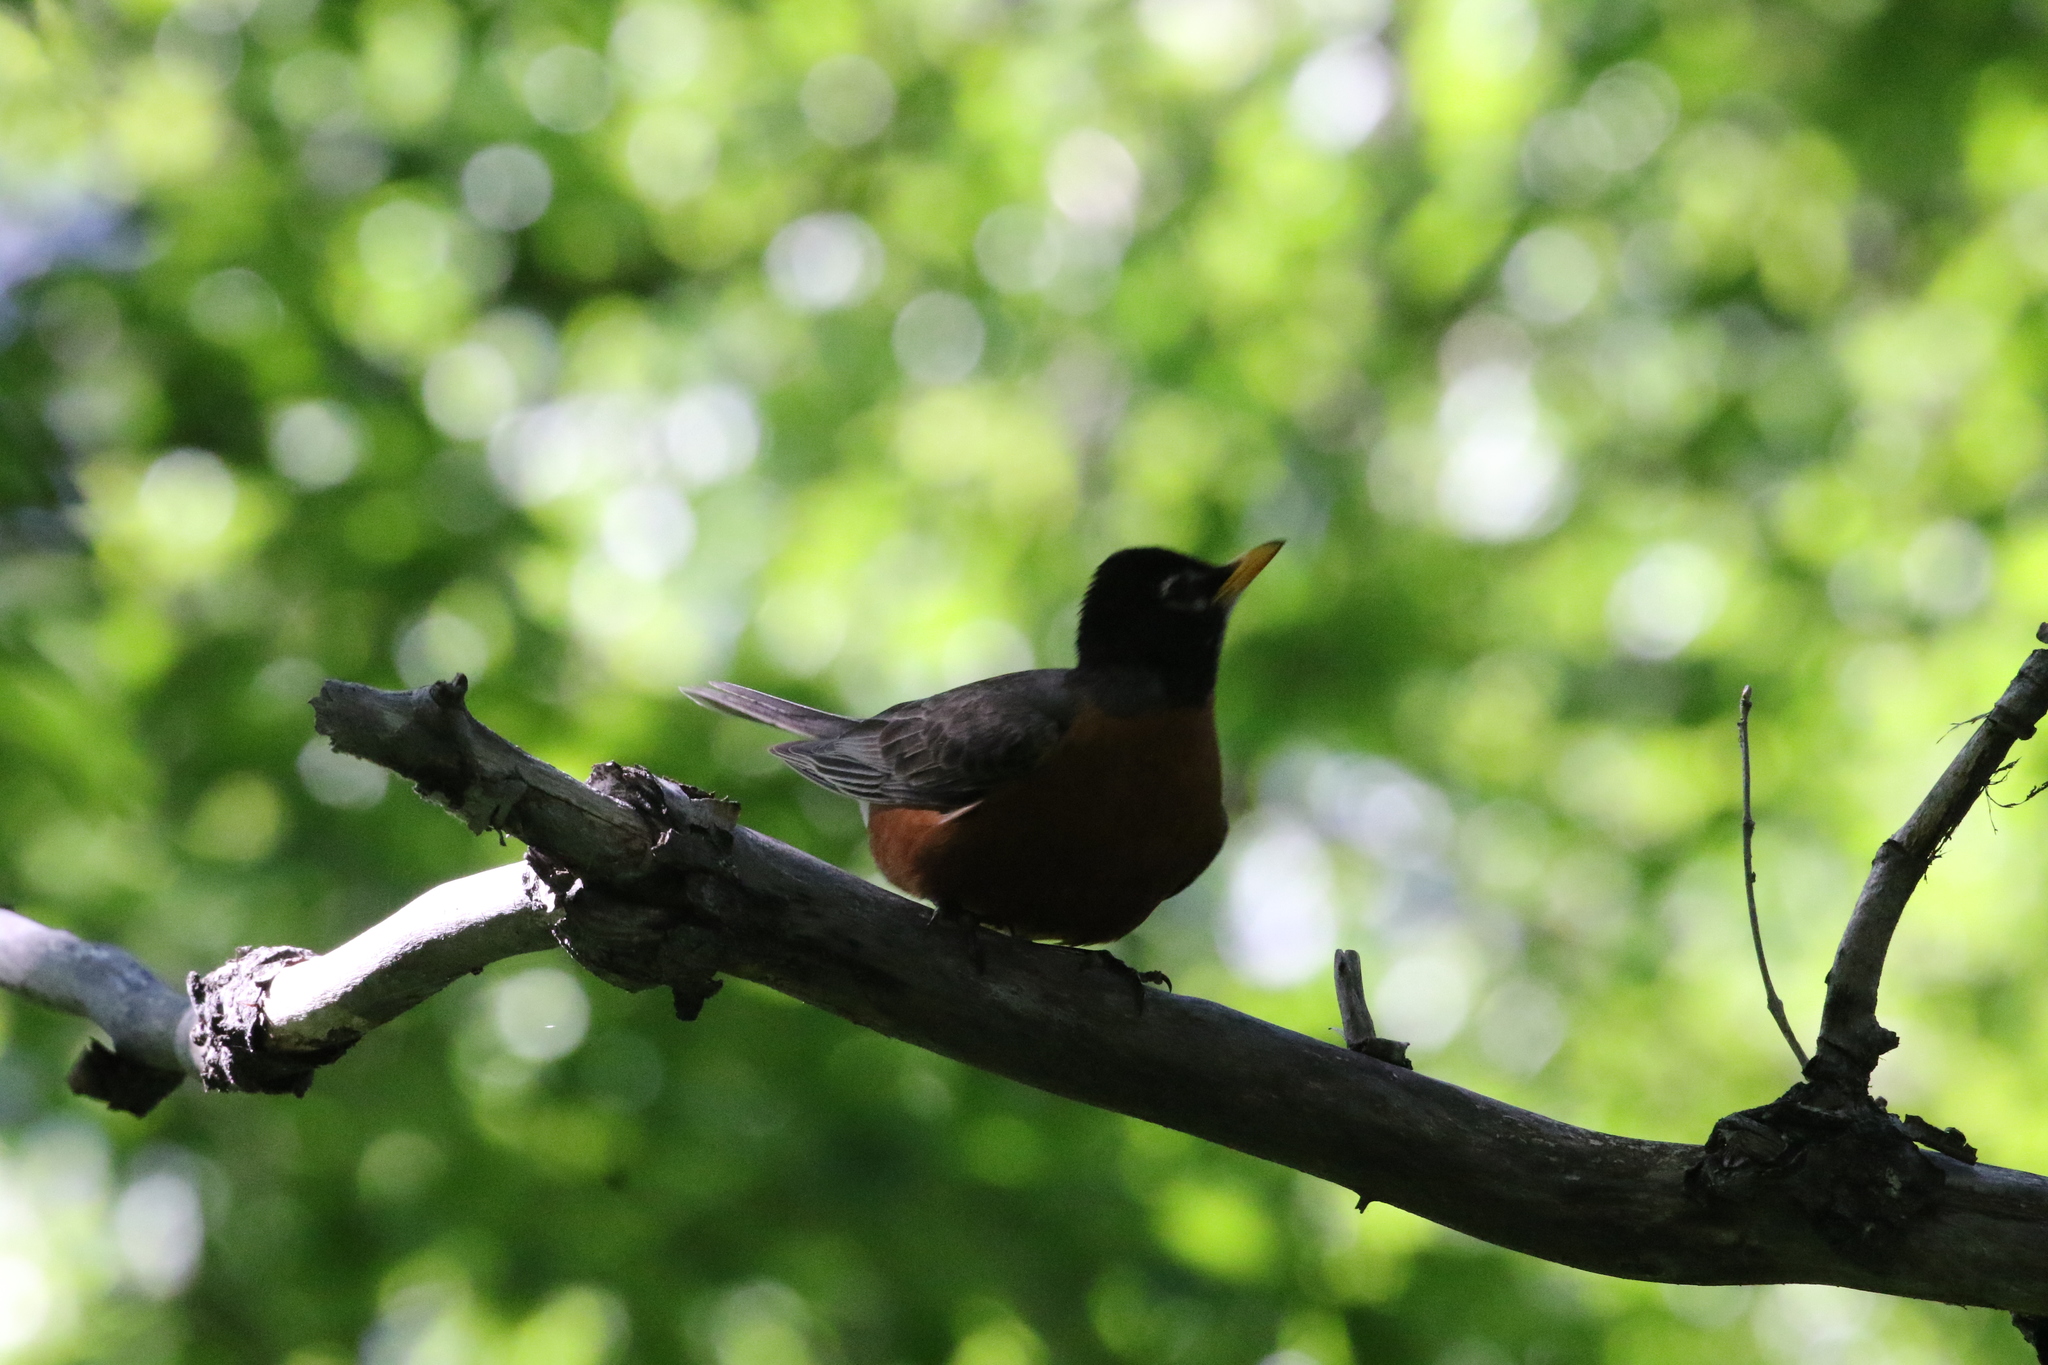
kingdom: Animalia
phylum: Chordata
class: Aves
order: Passeriformes
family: Turdidae
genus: Turdus
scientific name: Turdus migratorius
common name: American robin
